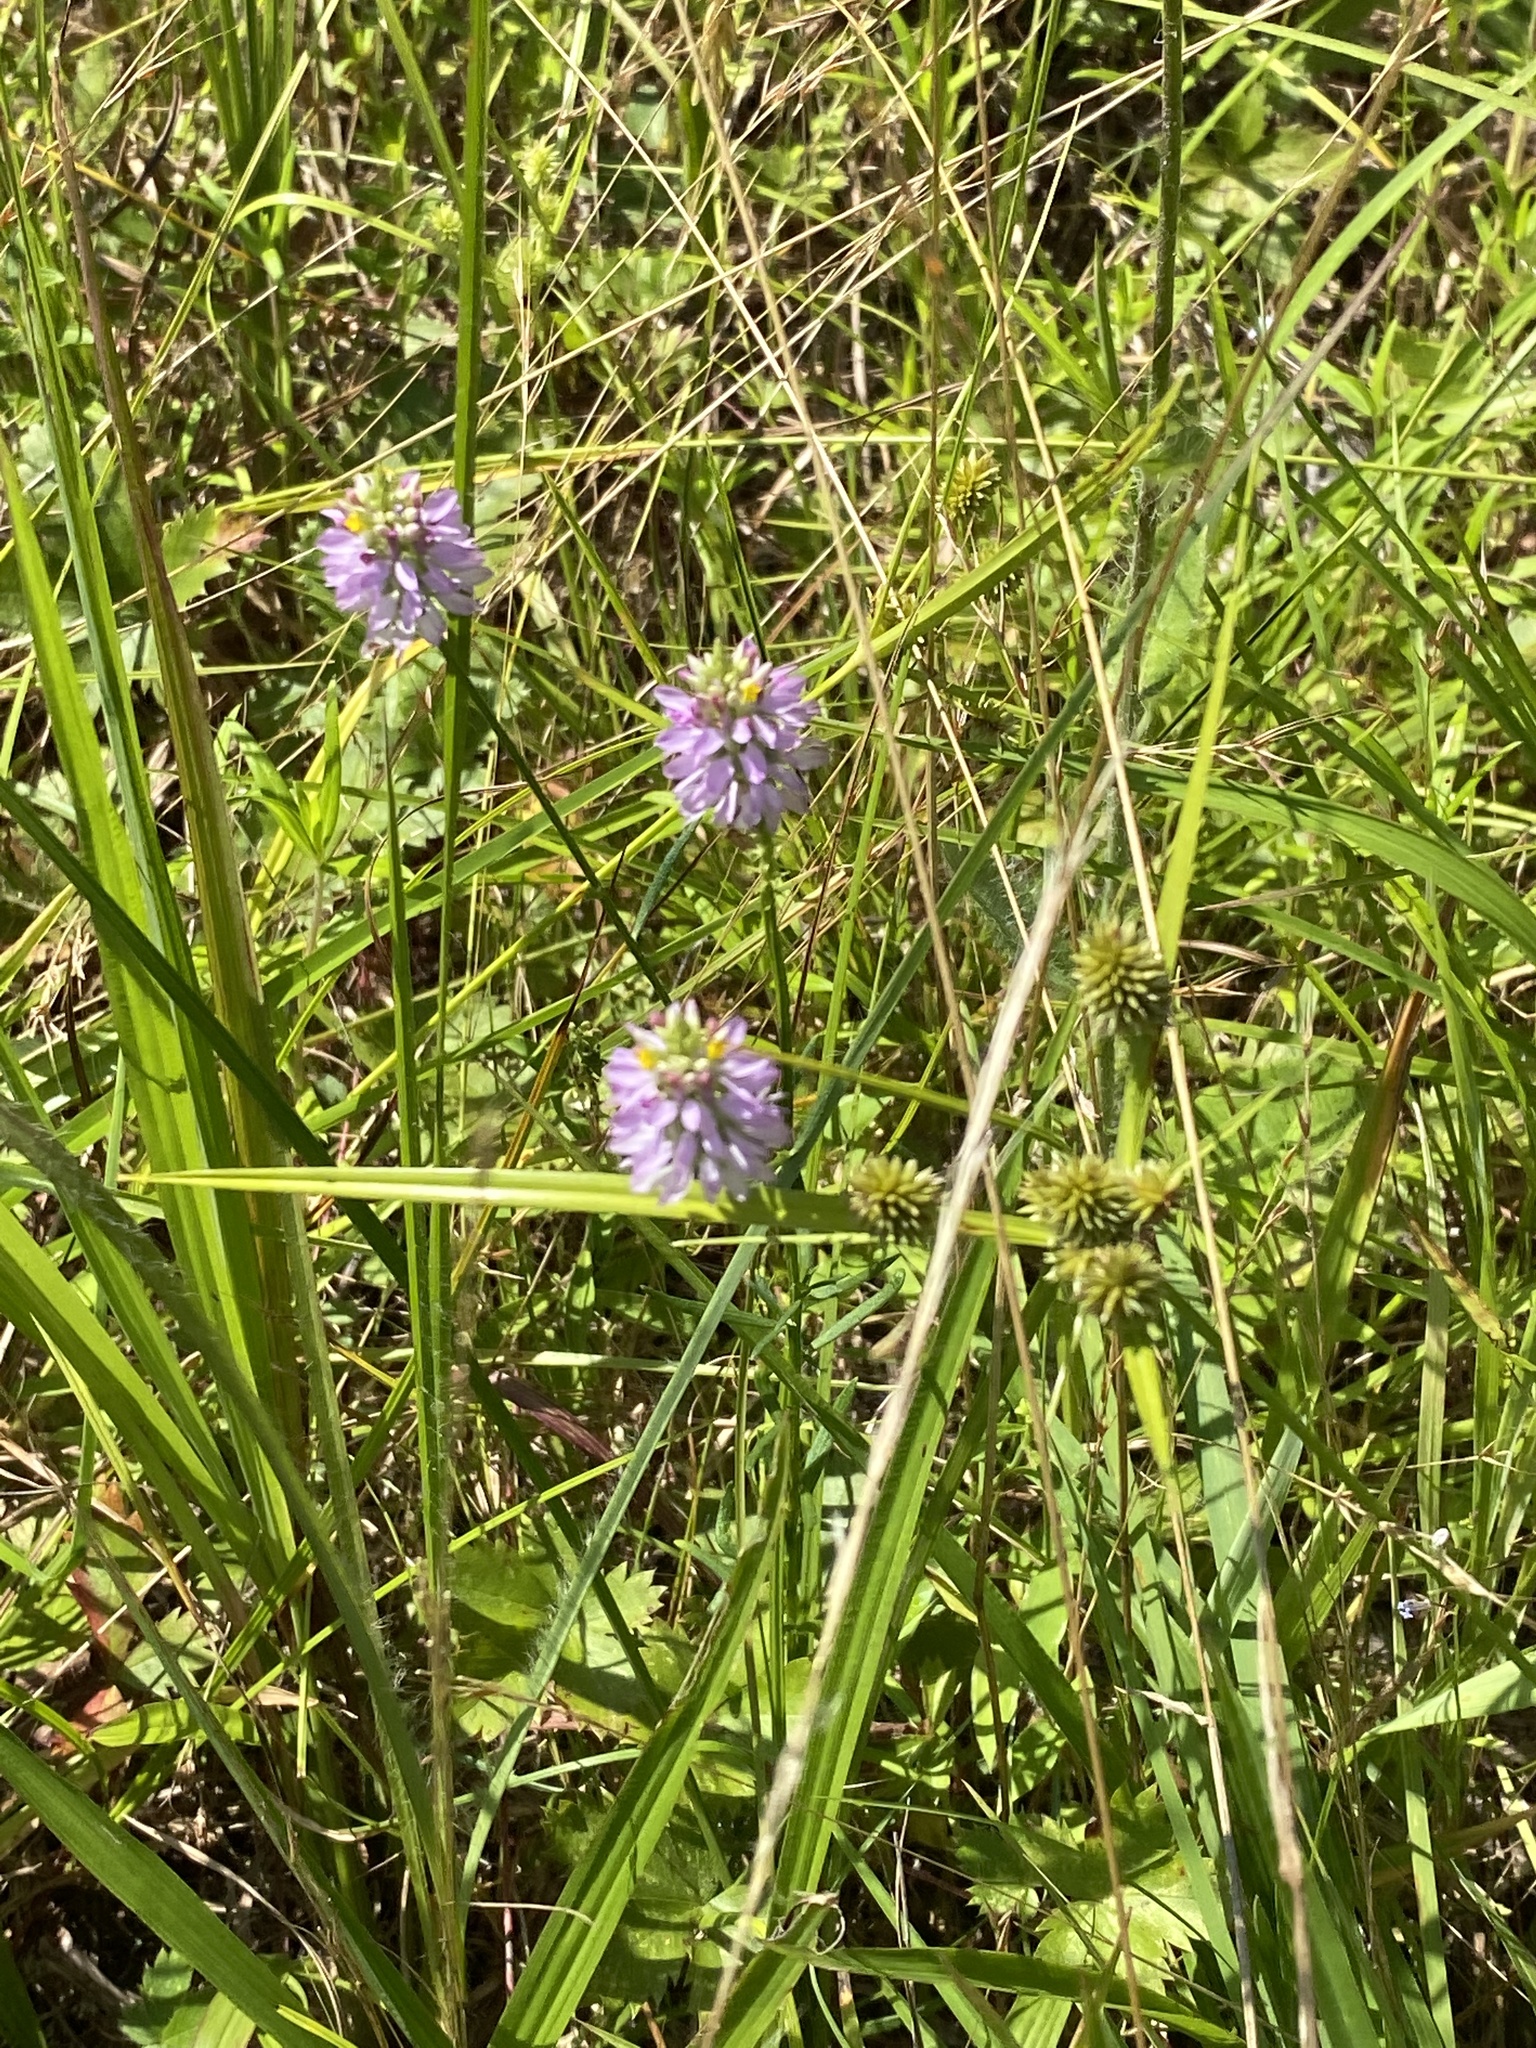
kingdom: Plantae
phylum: Tracheophyta
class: Magnoliopsida
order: Fabales
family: Polygalaceae
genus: Polygala
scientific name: Polygala curtissii
